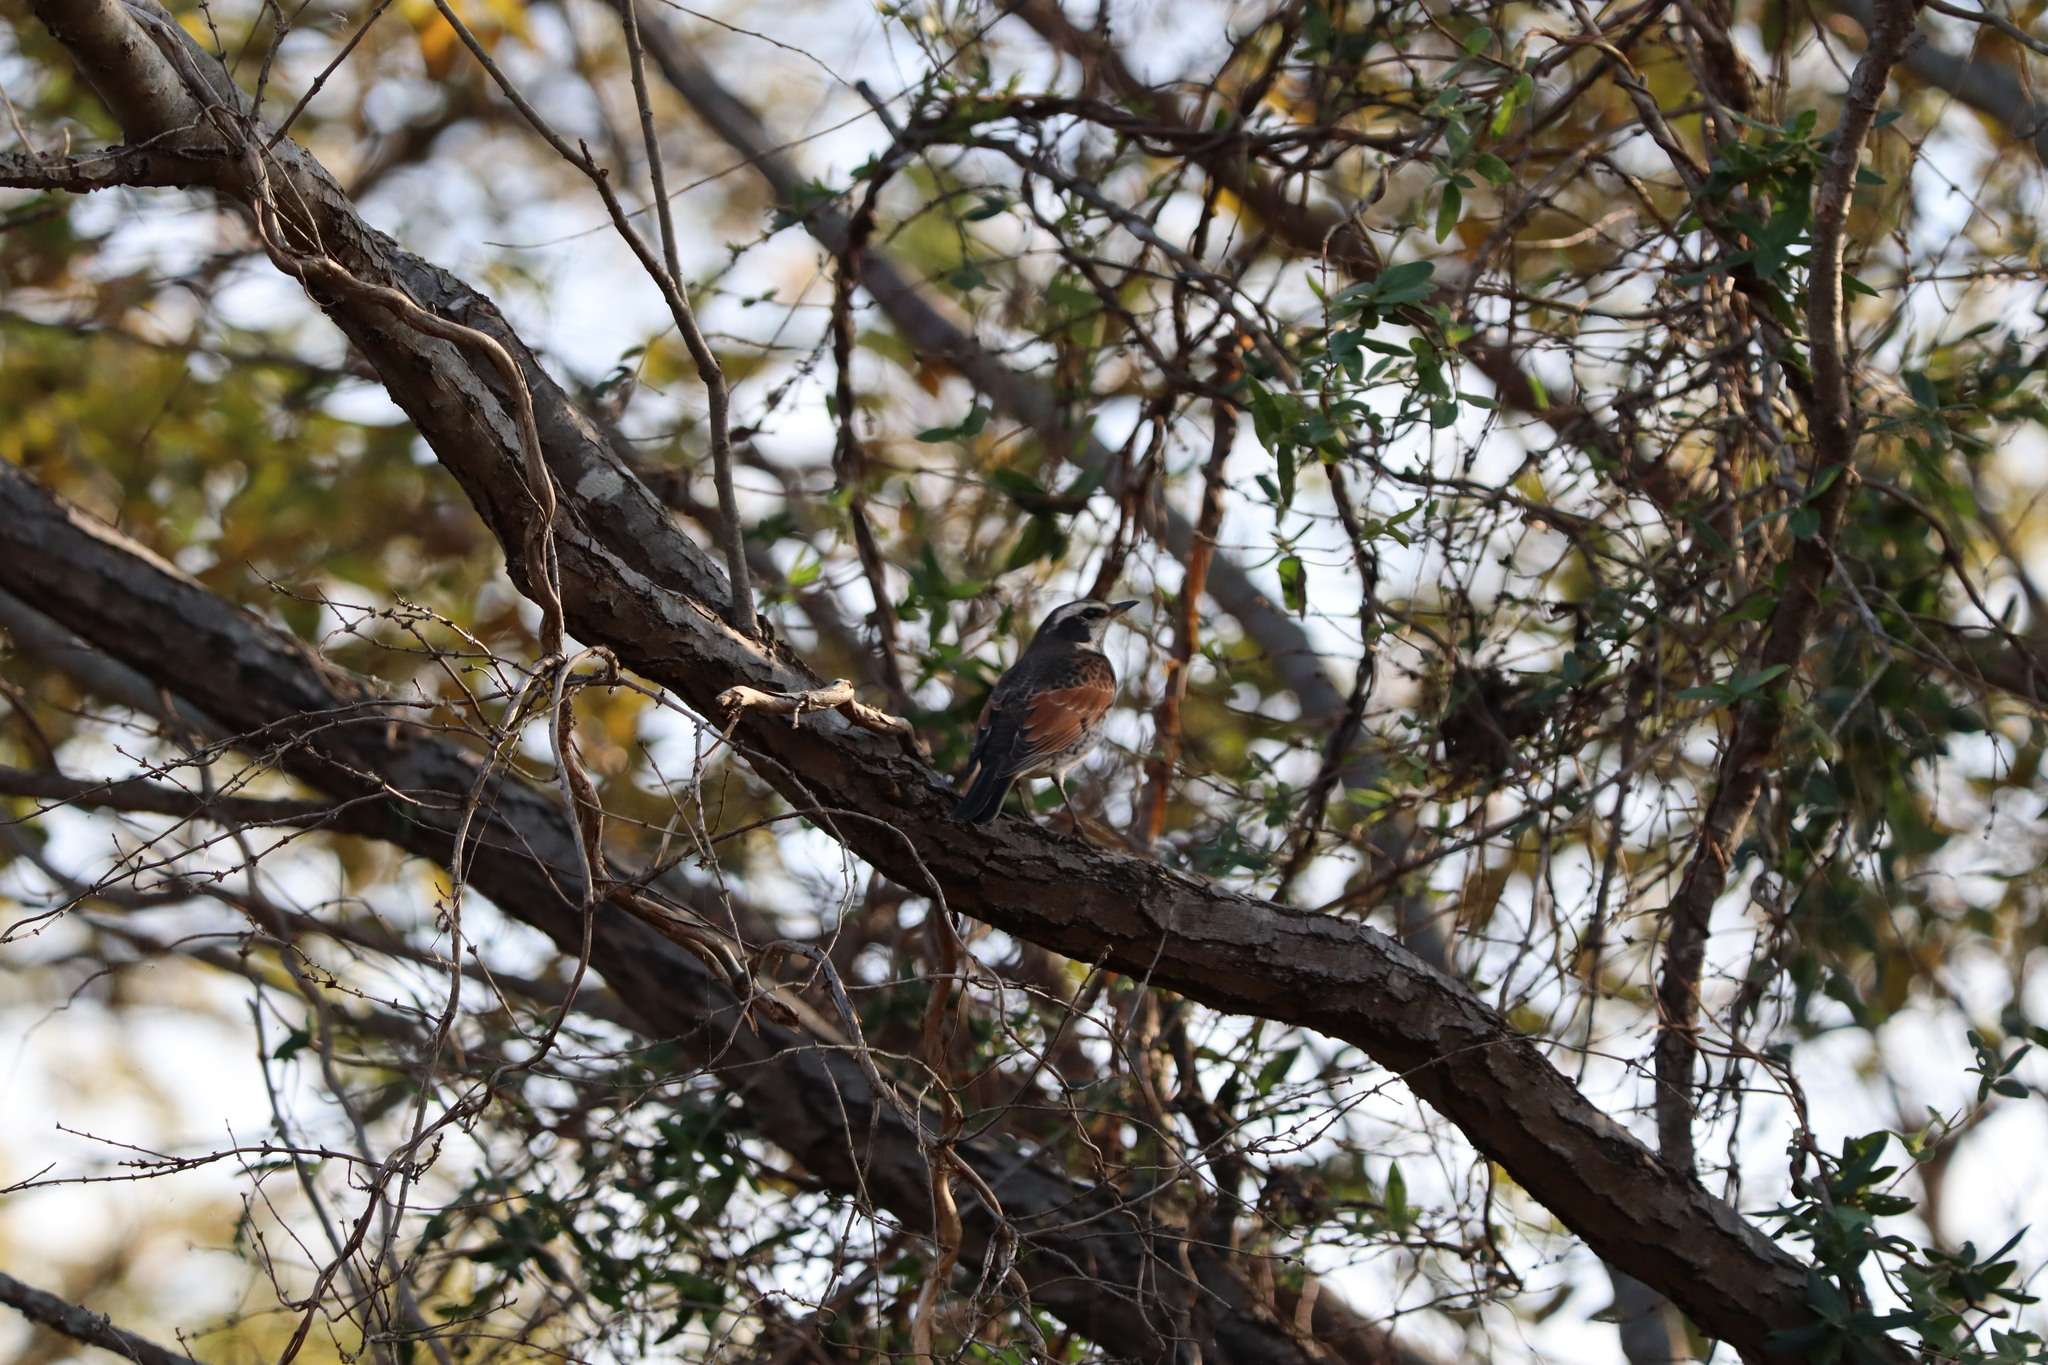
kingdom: Animalia
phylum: Chordata
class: Aves
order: Passeriformes
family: Turdidae
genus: Turdus
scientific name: Turdus eunomus
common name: Dusky thrush
